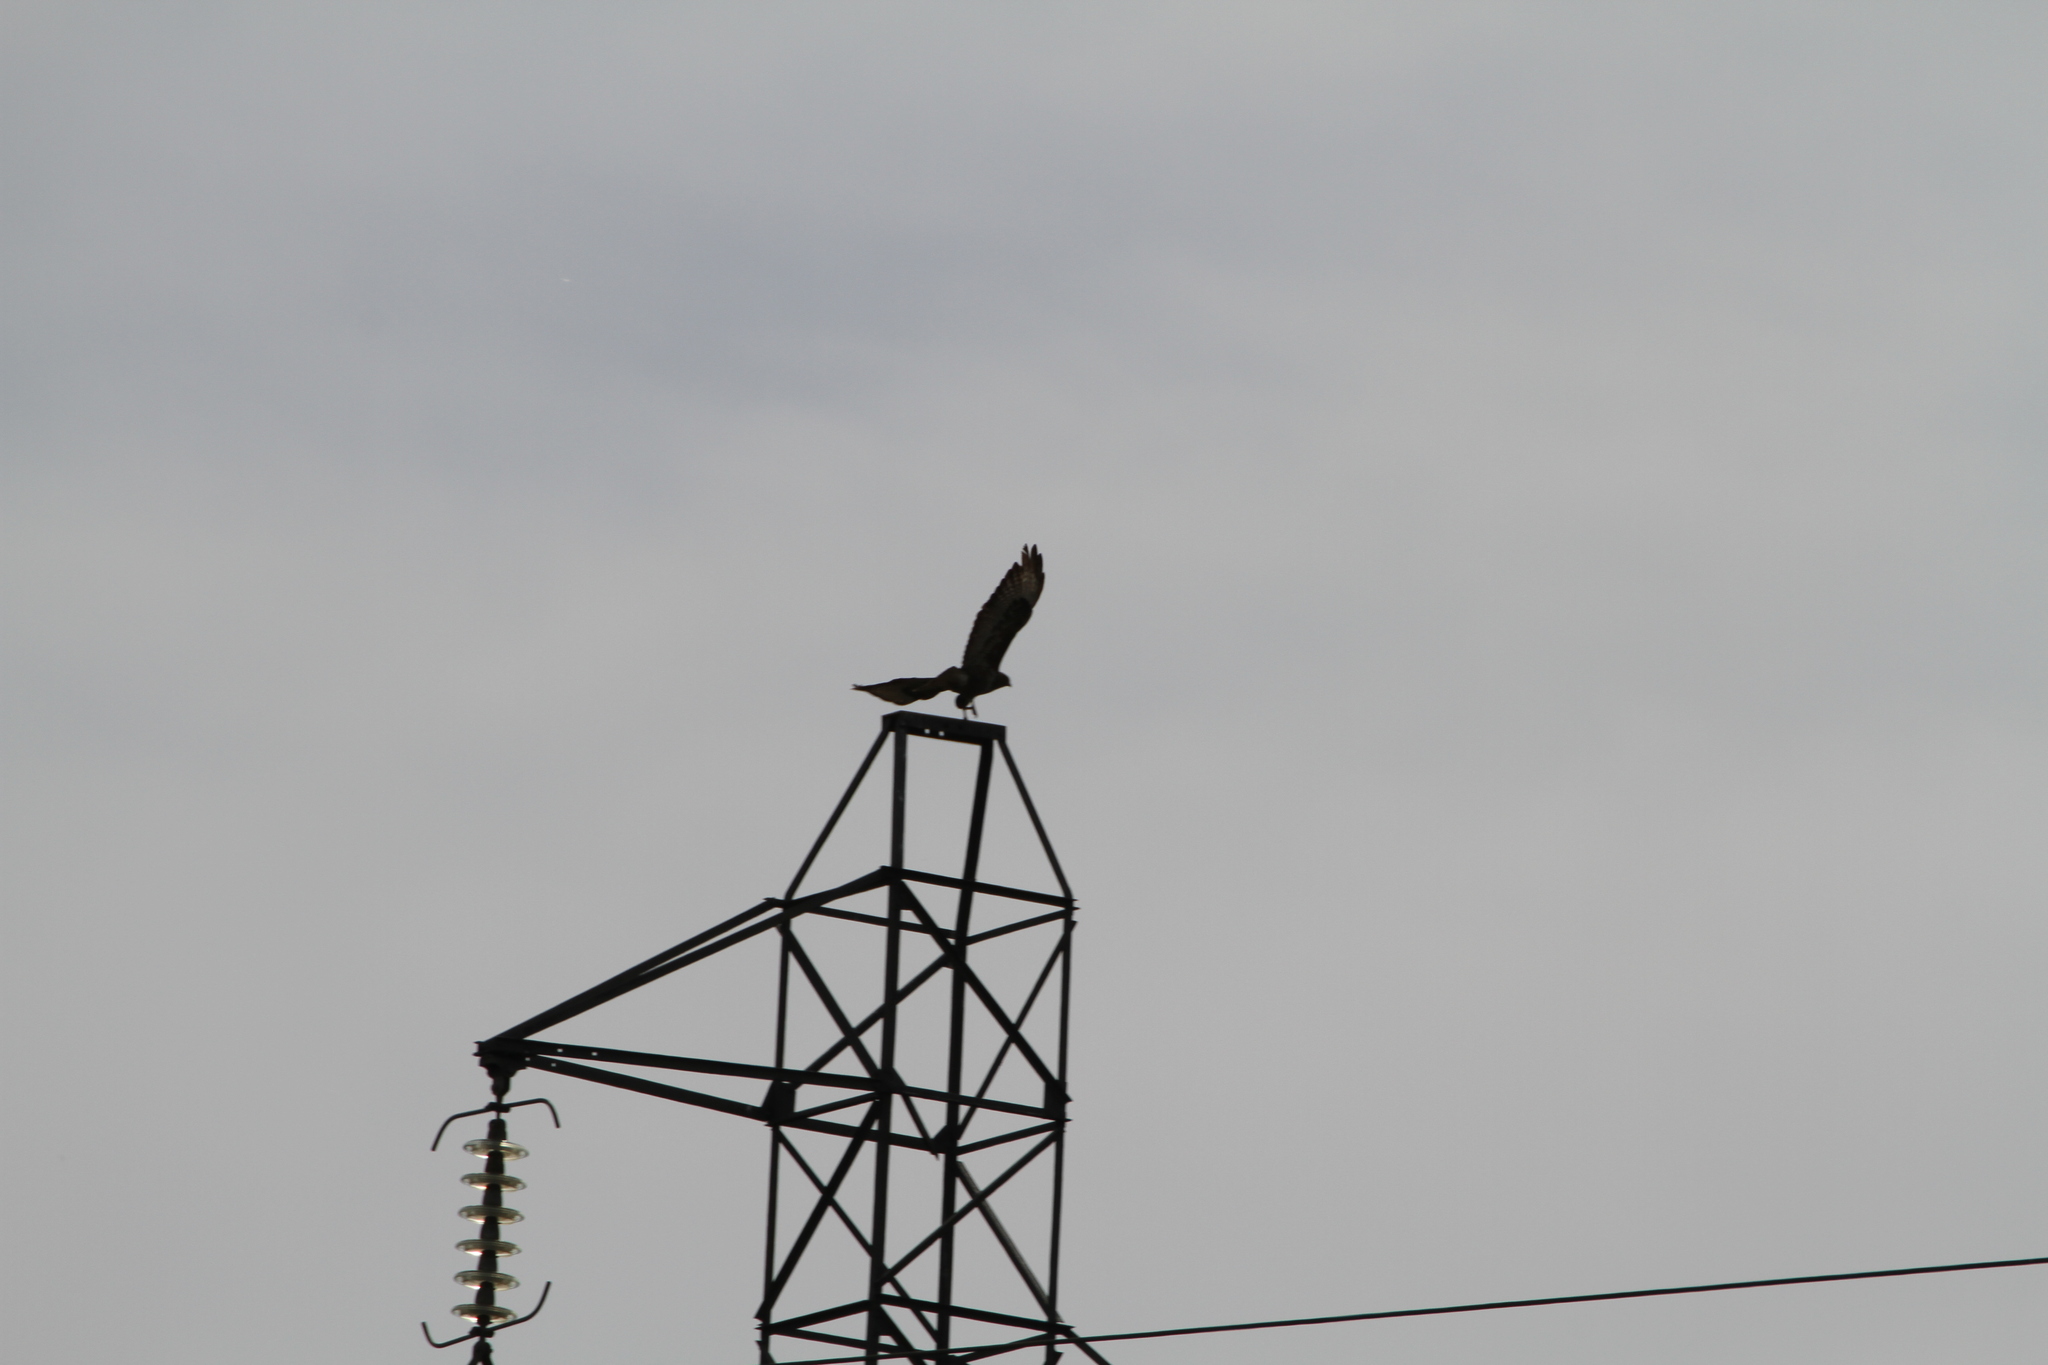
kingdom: Animalia
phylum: Chordata
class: Aves
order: Accipitriformes
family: Accipitridae
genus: Buteo
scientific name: Buteo buteo
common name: Common buzzard
